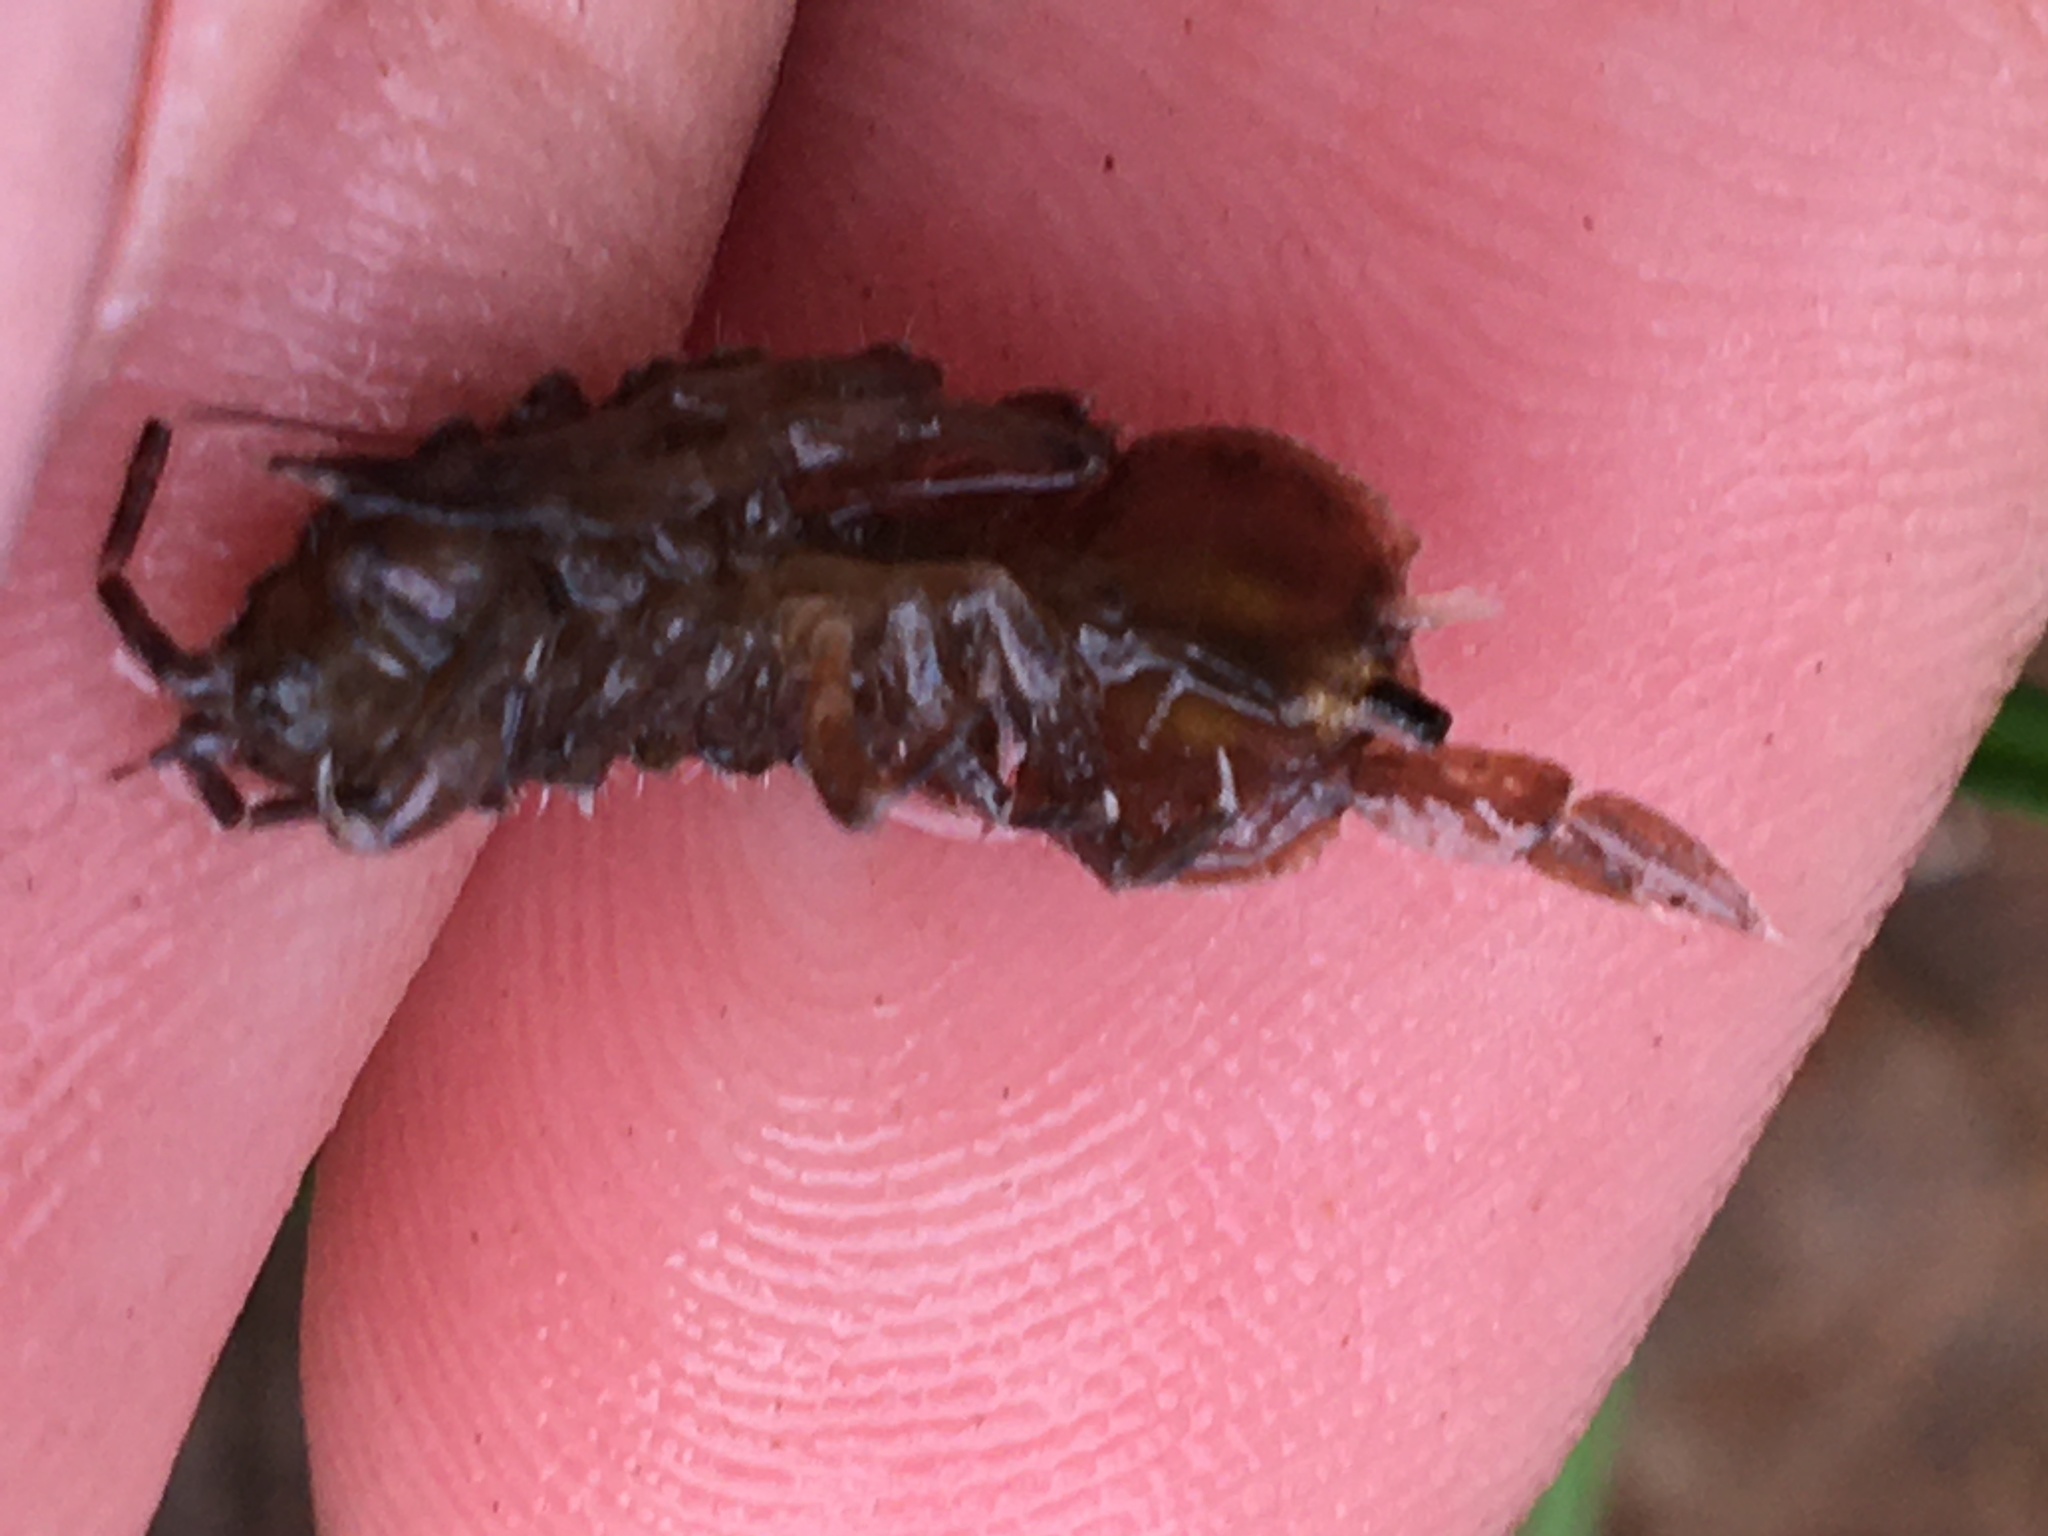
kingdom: Animalia
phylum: Arthropoda
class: Malacostraca
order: Isopoda
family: Asellidae
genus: Caecidotea
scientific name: Caecidotea
